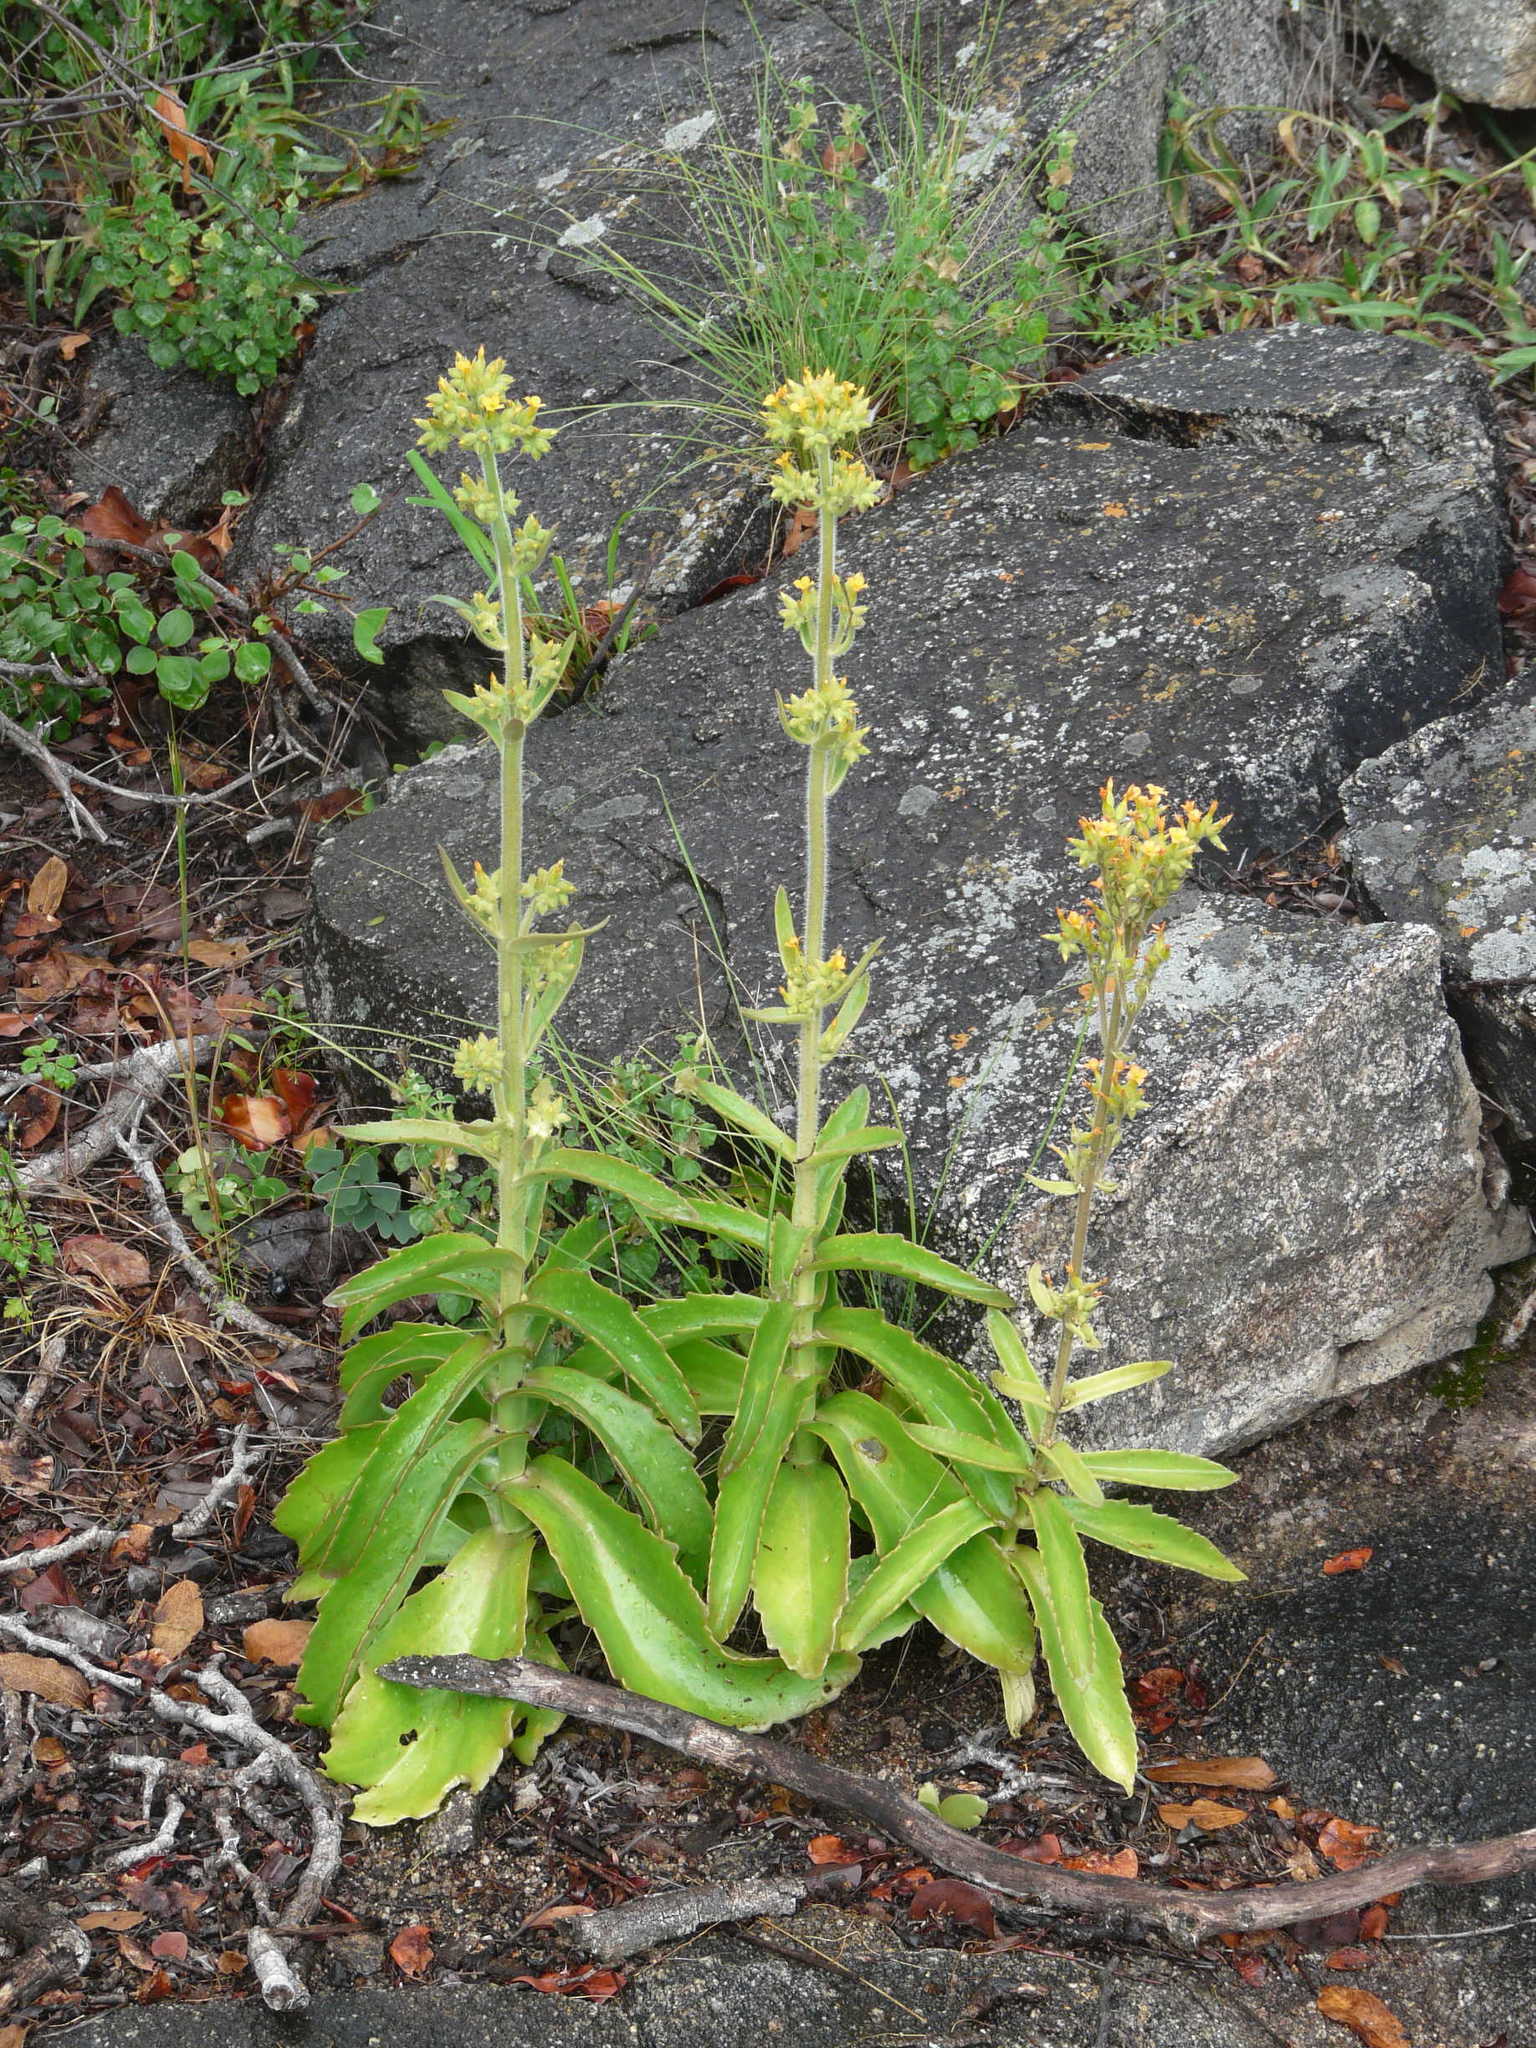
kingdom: Plantae
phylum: Tracheophyta
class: Magnoliopsida
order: Saxifragales
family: Crassulaceae
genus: Kalanchoe
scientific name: Kalanchoe lanceolata
